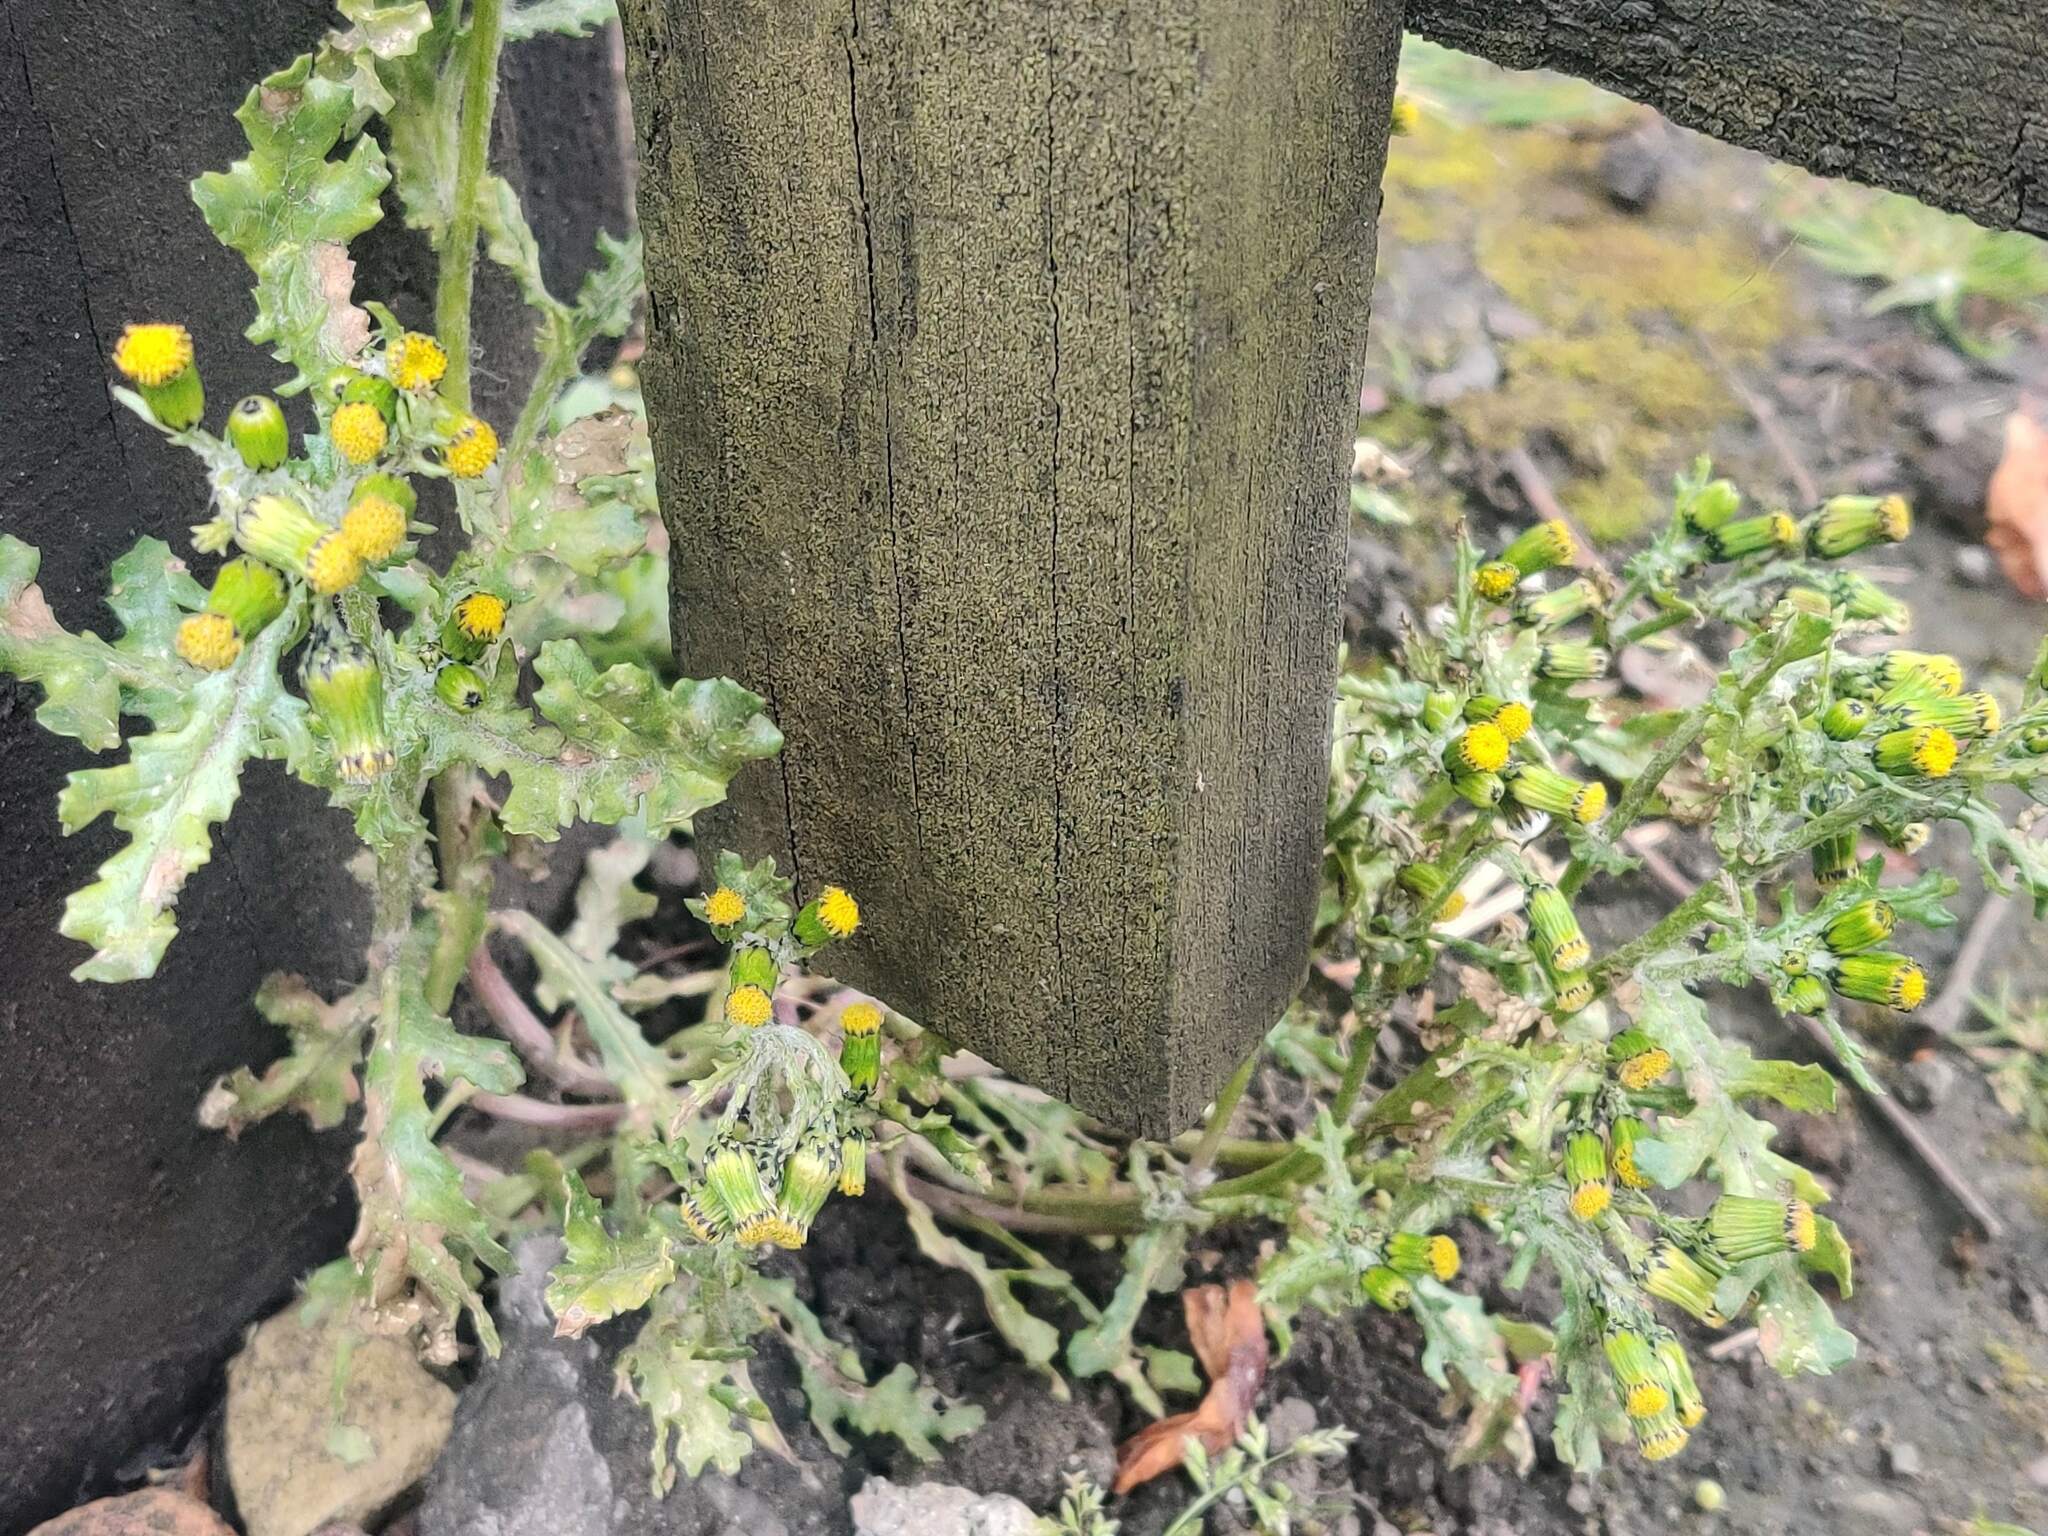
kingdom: Plantae
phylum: Tracheophyta
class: Magnoliopsida
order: Asterales
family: Asteraceae
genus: Senecio
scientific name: Senecio vulgaris
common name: Old-man-in-the-spring
